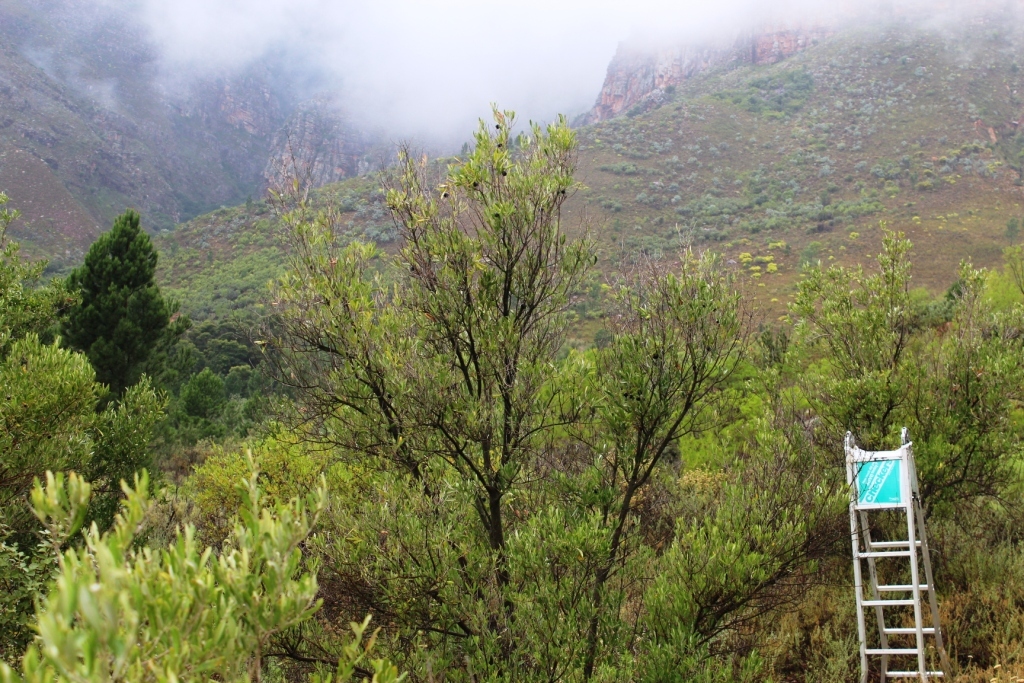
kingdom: Plantae
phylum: Tracheophyta
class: Magnoliopsida
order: Lamiales
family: Oleaceae
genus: Olea
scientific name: Olea europaea
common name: Olive
